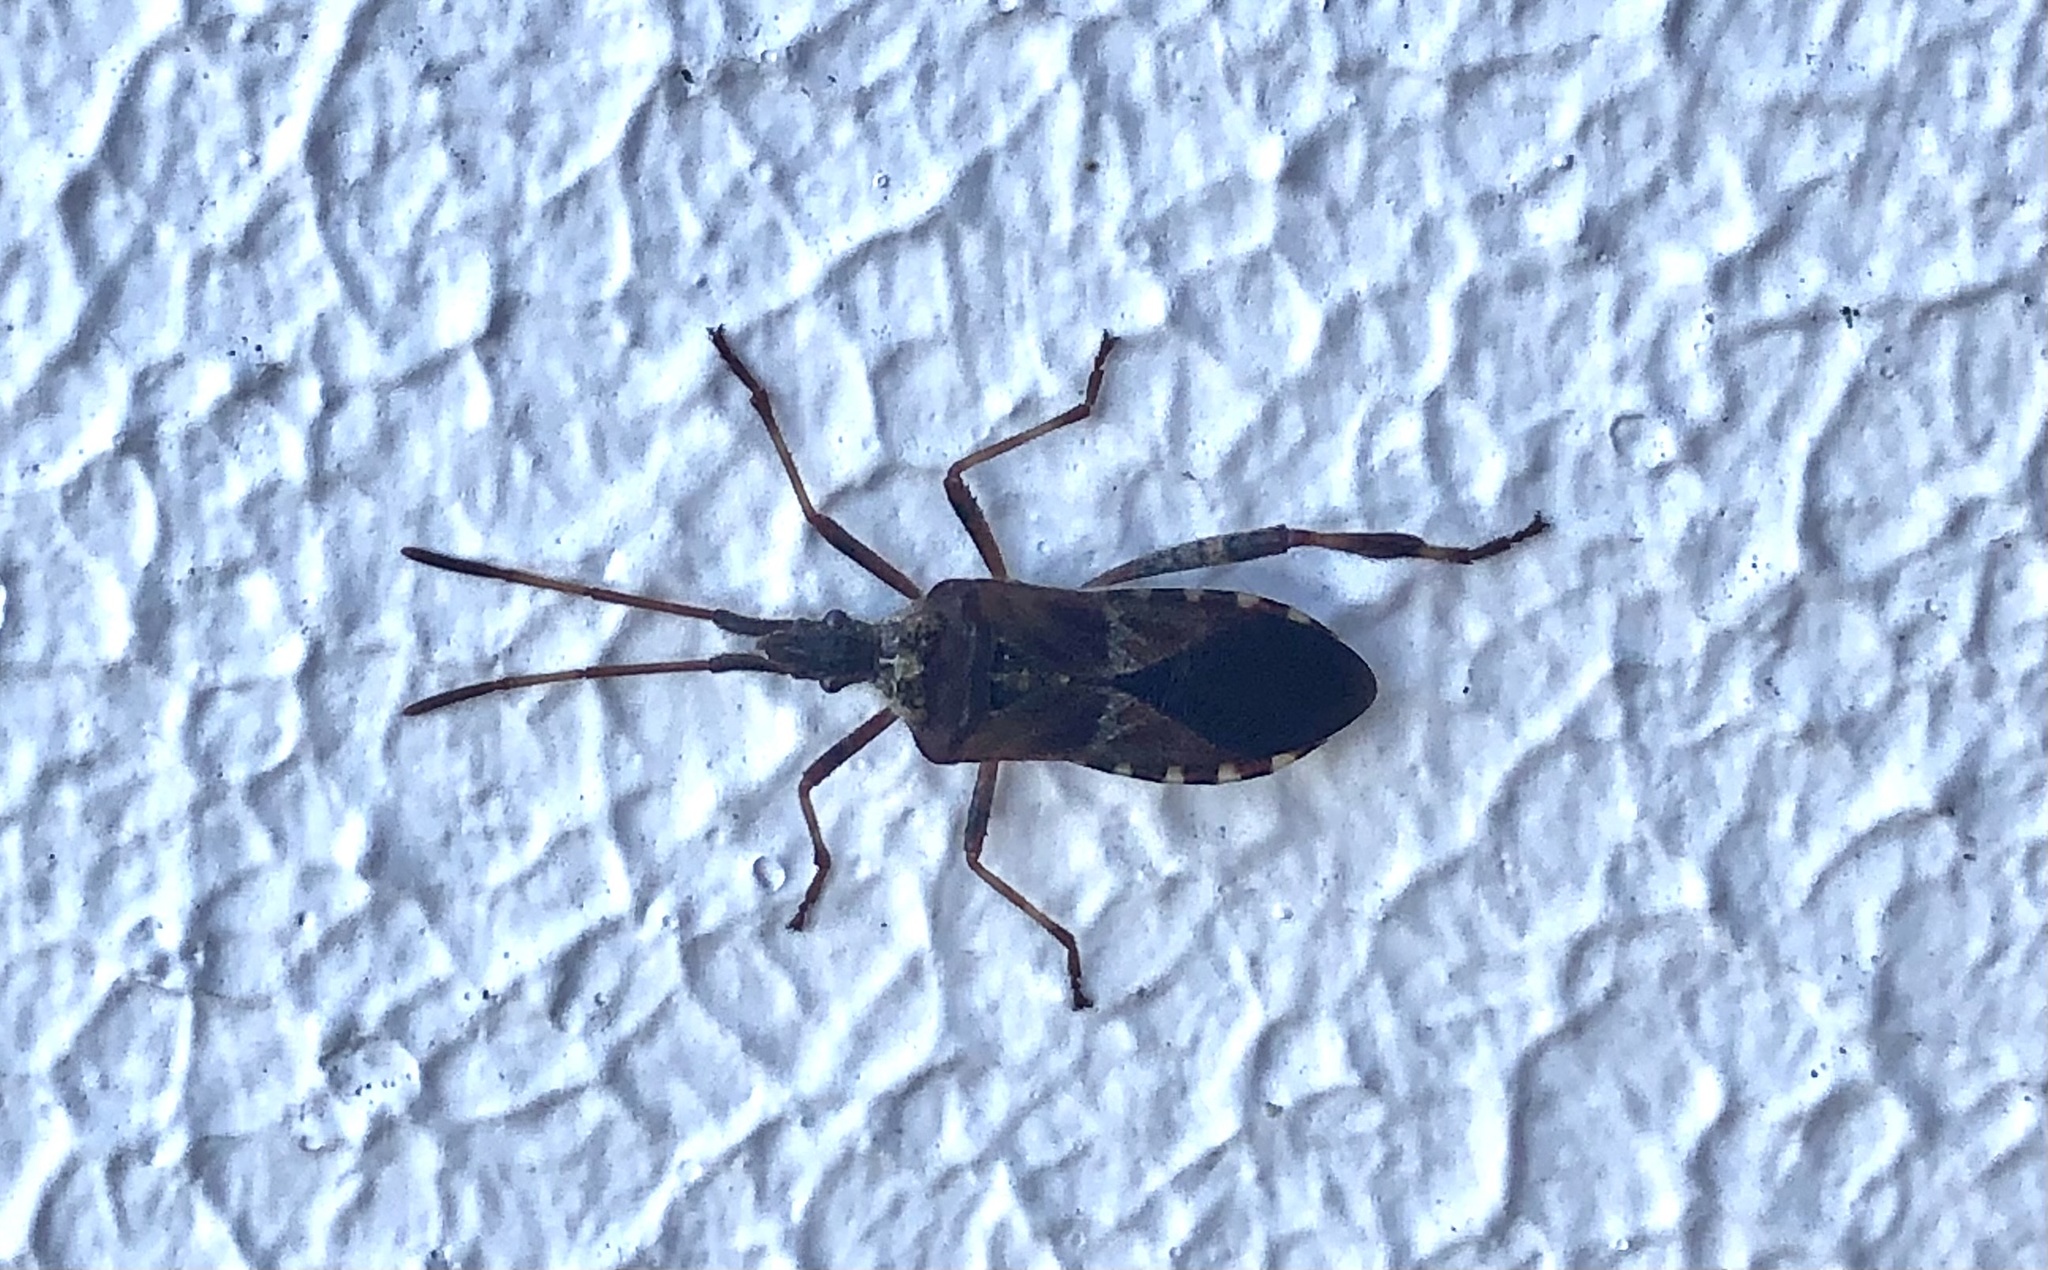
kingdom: Animalia
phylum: Arthropoda
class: Insecta
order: Hemiptera
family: Coreidae
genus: Leptoglossus
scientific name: Leptoglossus occidentalis
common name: Western conifer-seed bug
